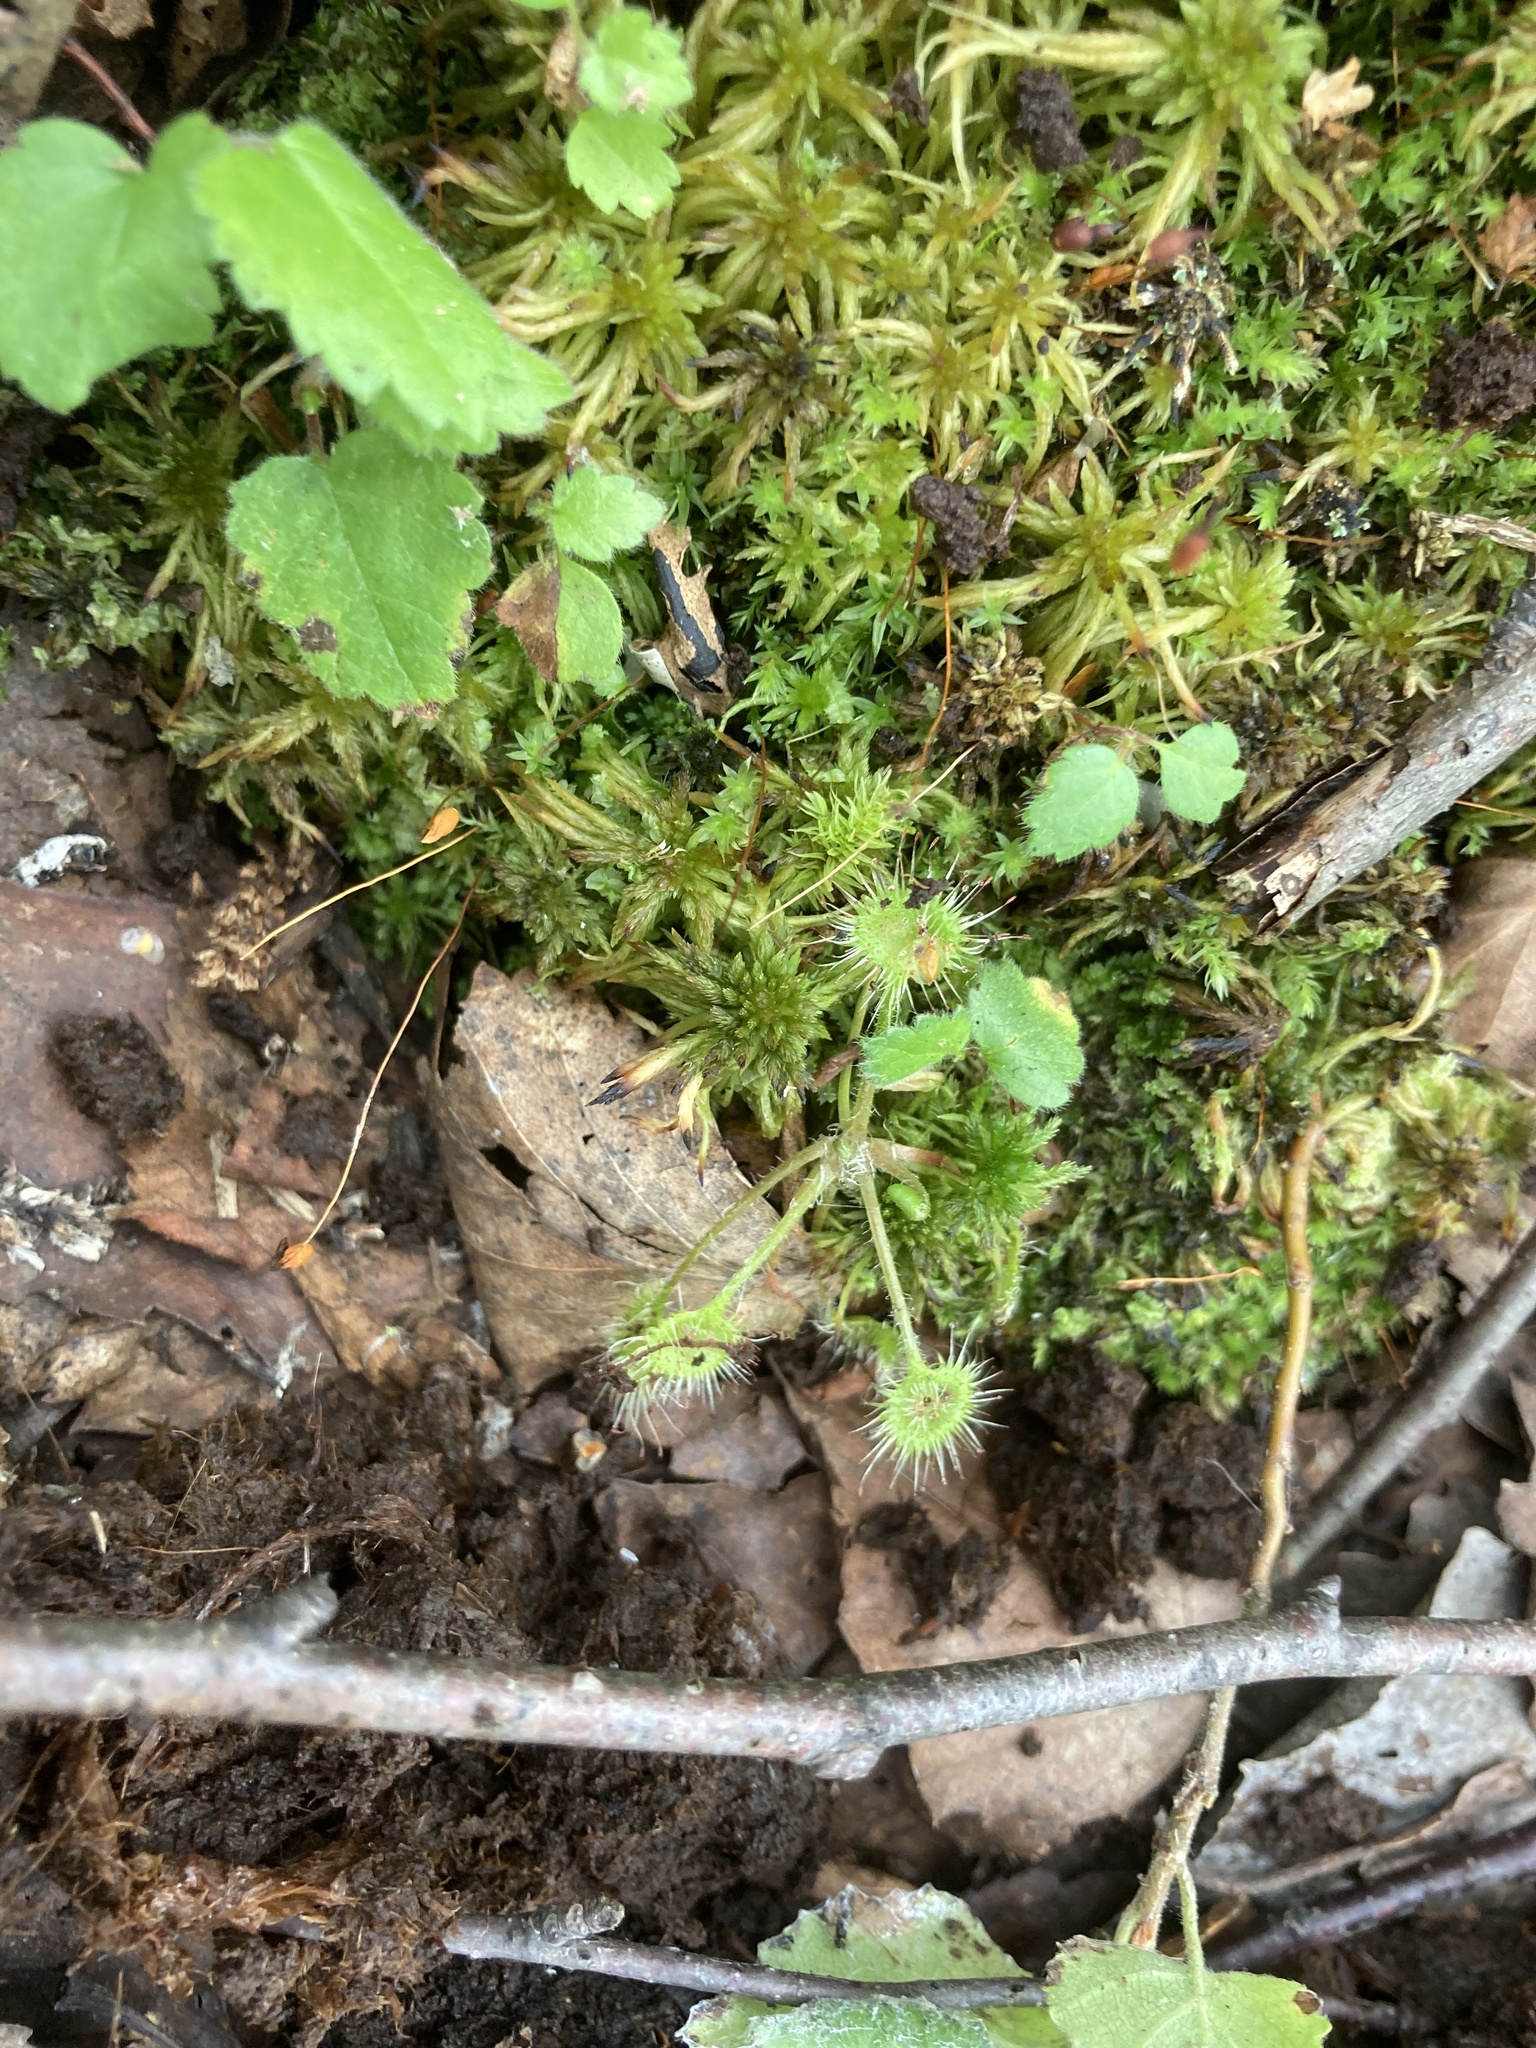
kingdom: Plantae
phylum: Tracheophyta
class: Magnoliopsida
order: Caryophyllales
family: Droseraceae
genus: Drosera
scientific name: Drosera rotundifolia
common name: Round-leaved sundew
